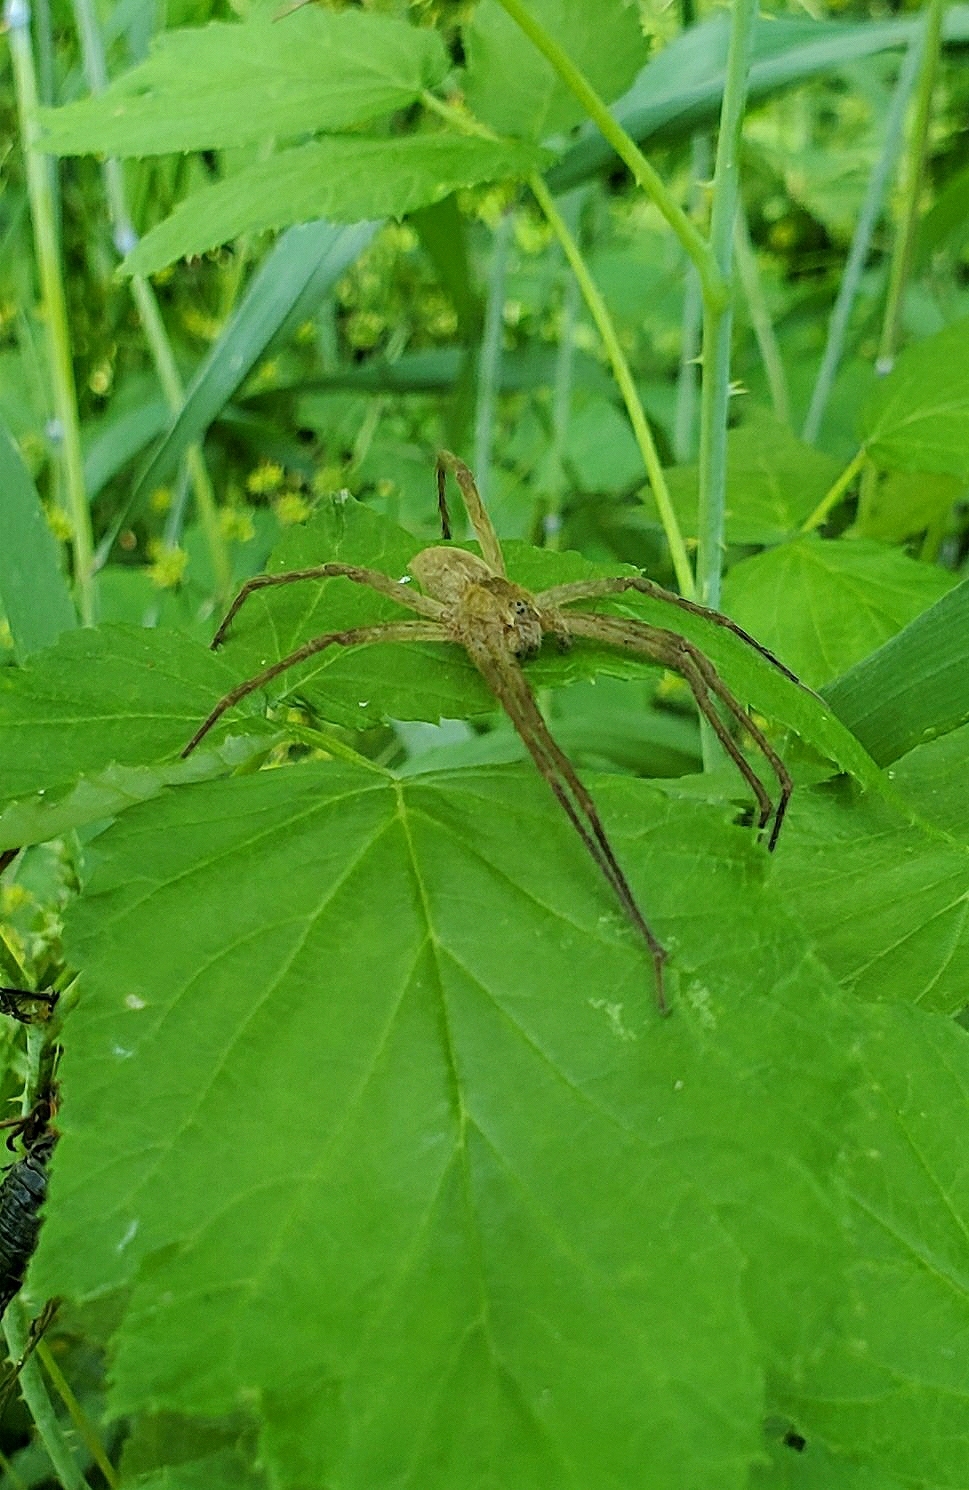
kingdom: Animalia
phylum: Arthropoda
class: Arachnida
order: Araneae
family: Pisauridae
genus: Pisaurina
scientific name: Pisaurina mira
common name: American nursery web spider
